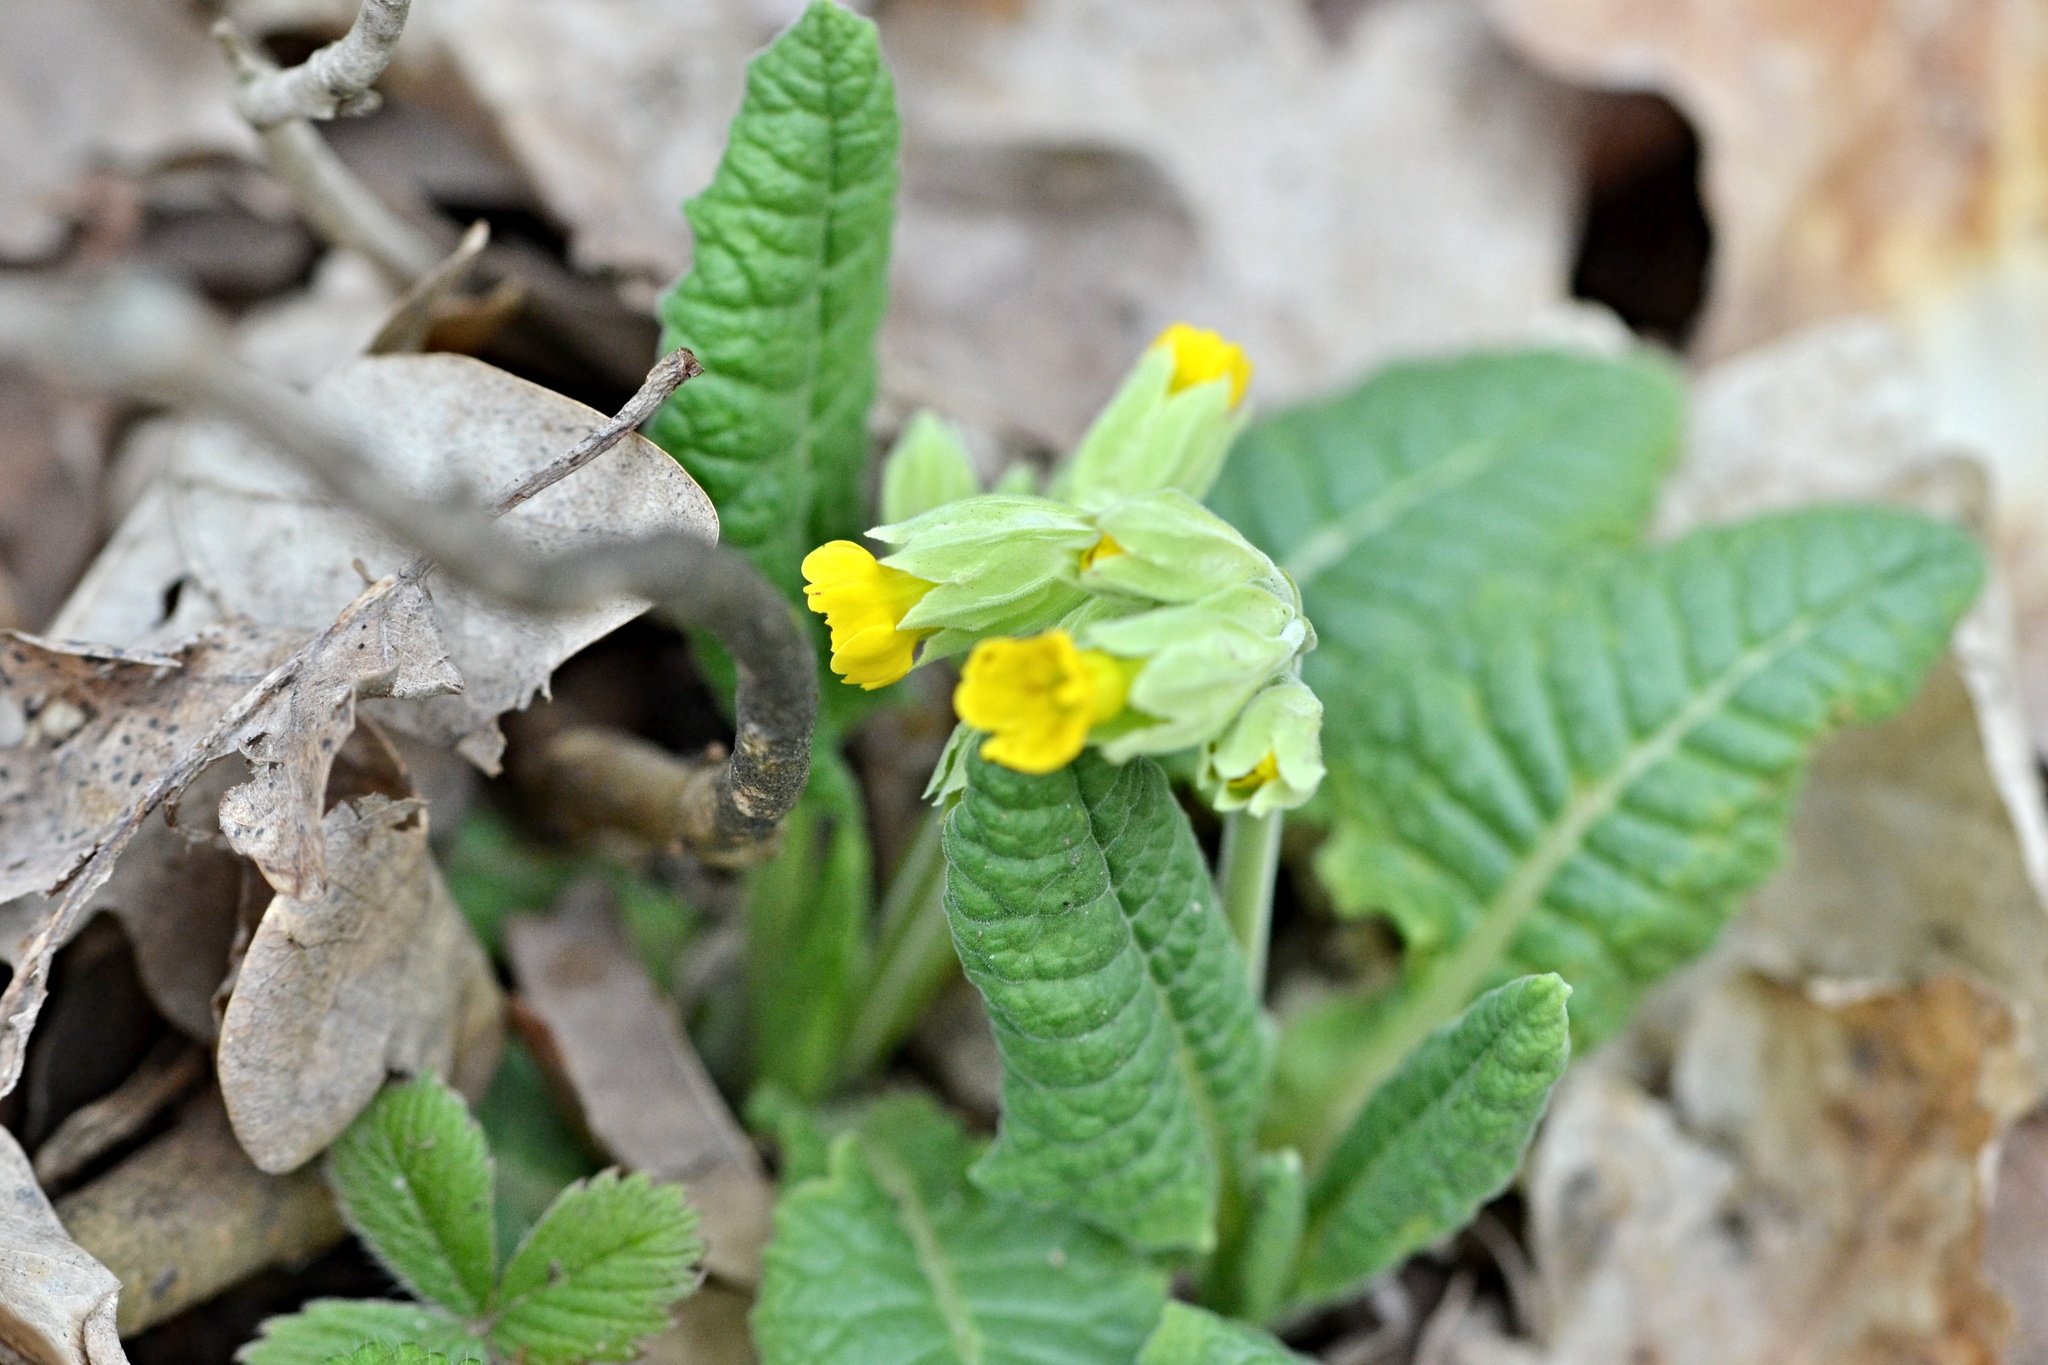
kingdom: Plantae
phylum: Tracheophyta
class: Magnoliopsida
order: Ericales
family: Primulaceae
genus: Primula
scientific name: Primula veris
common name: Cowslip
